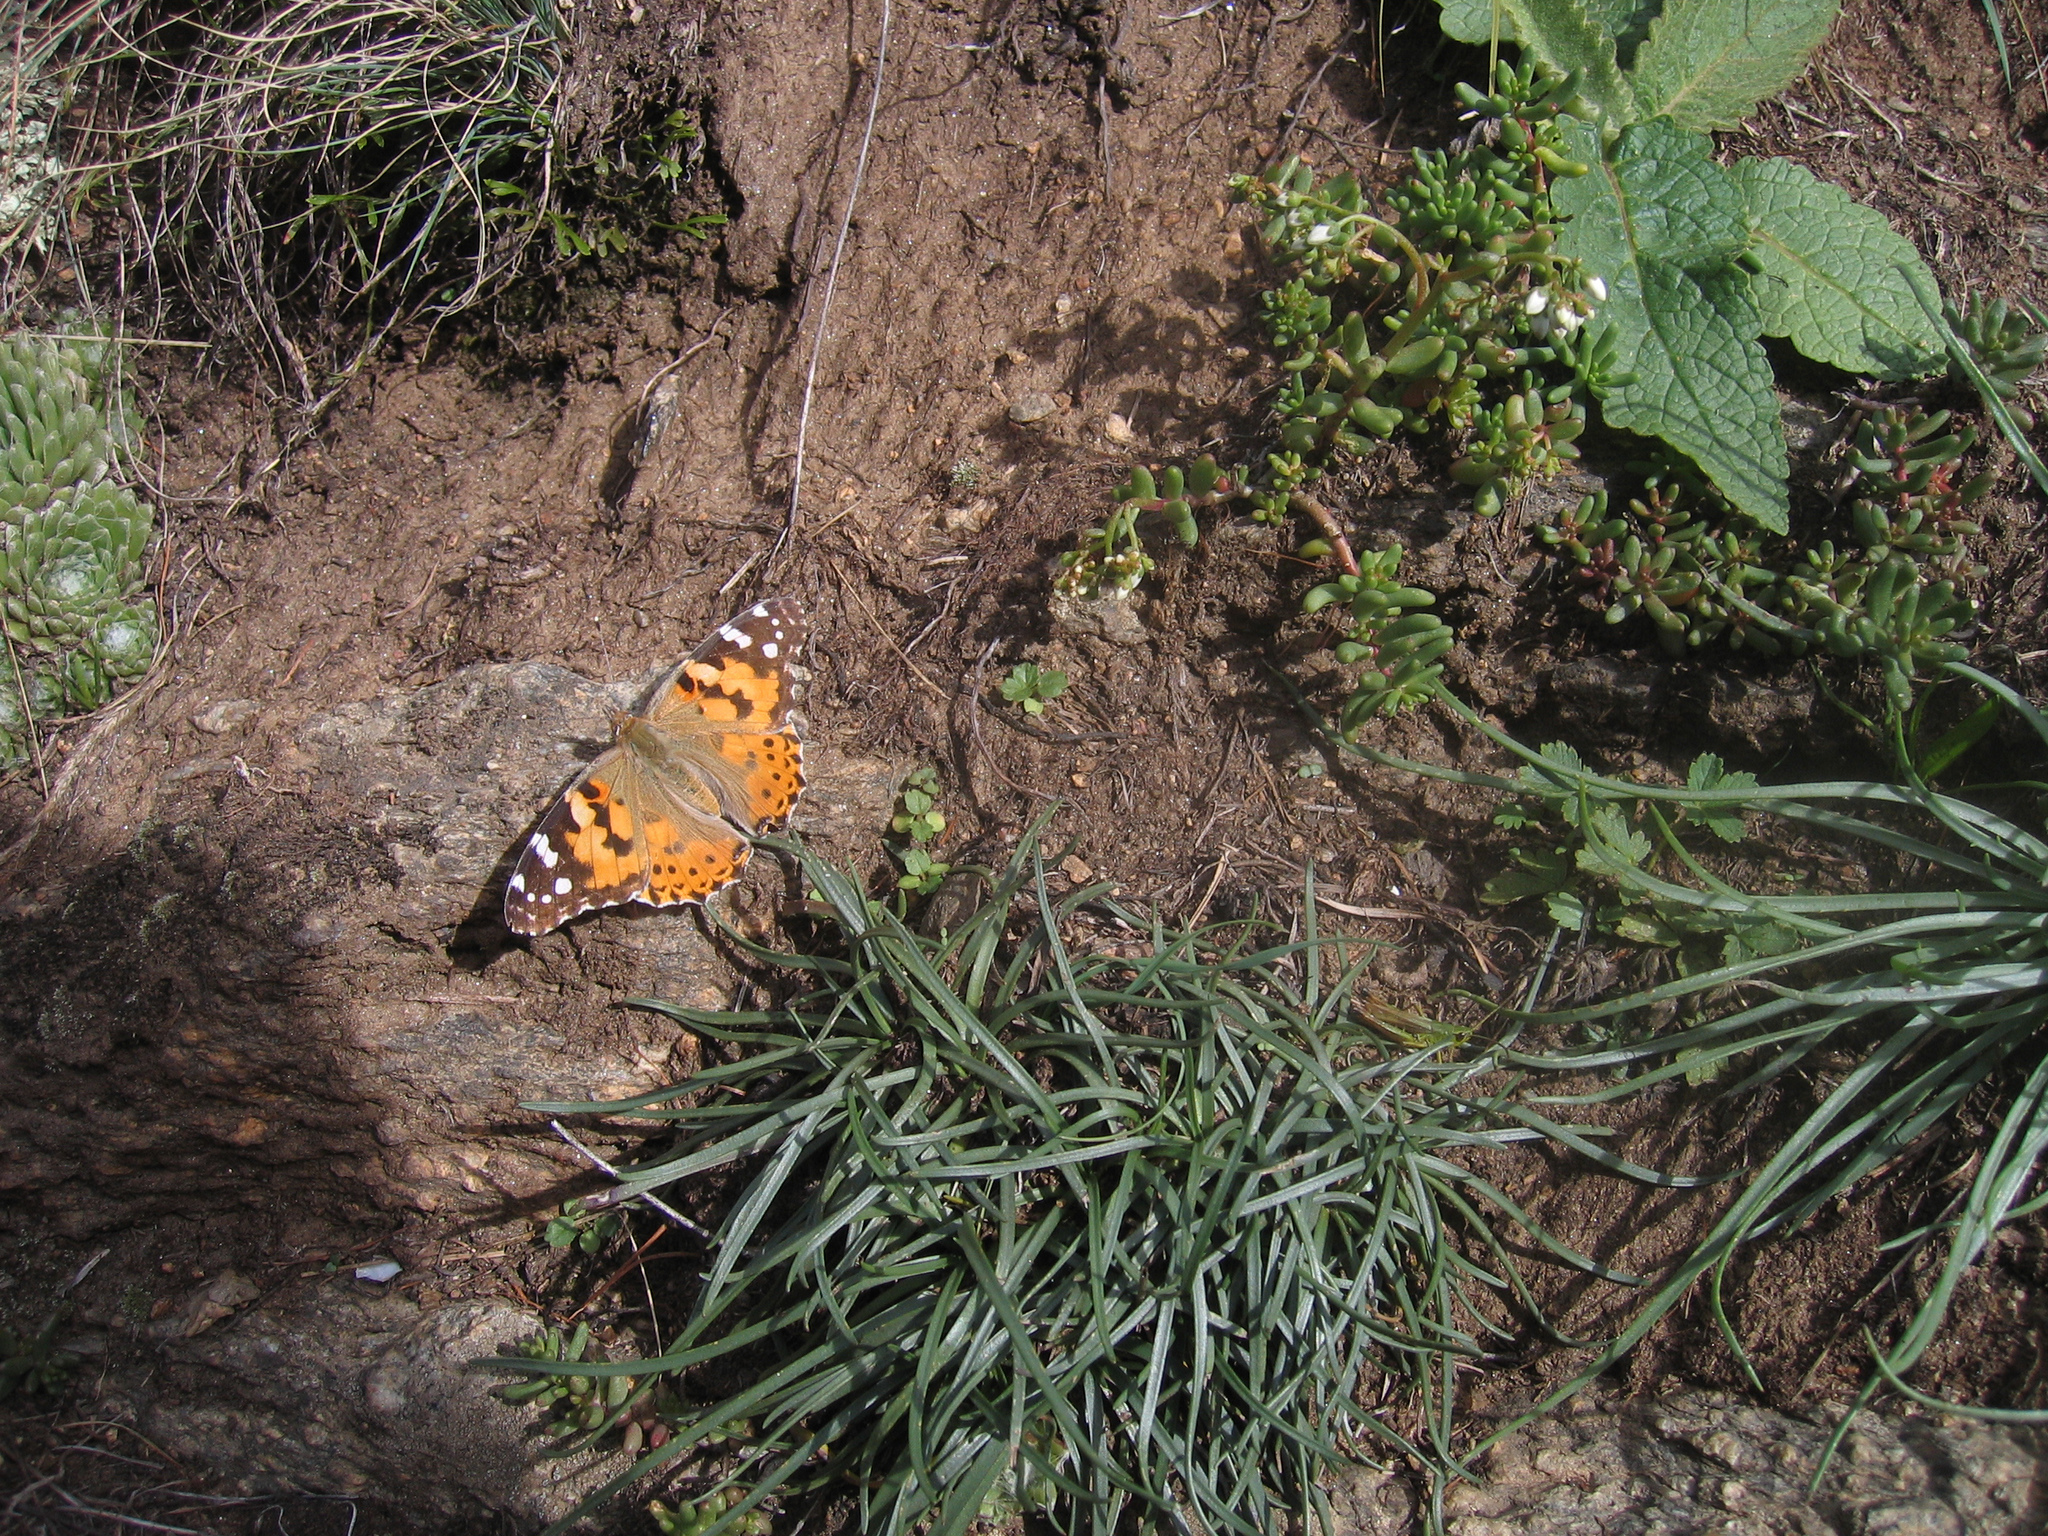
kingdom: Animalia
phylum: Arthropoda
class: Insecta
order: Lepidoptera
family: Nymphalidae
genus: Vanessa
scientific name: Vanessa cardui
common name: Painted lady
